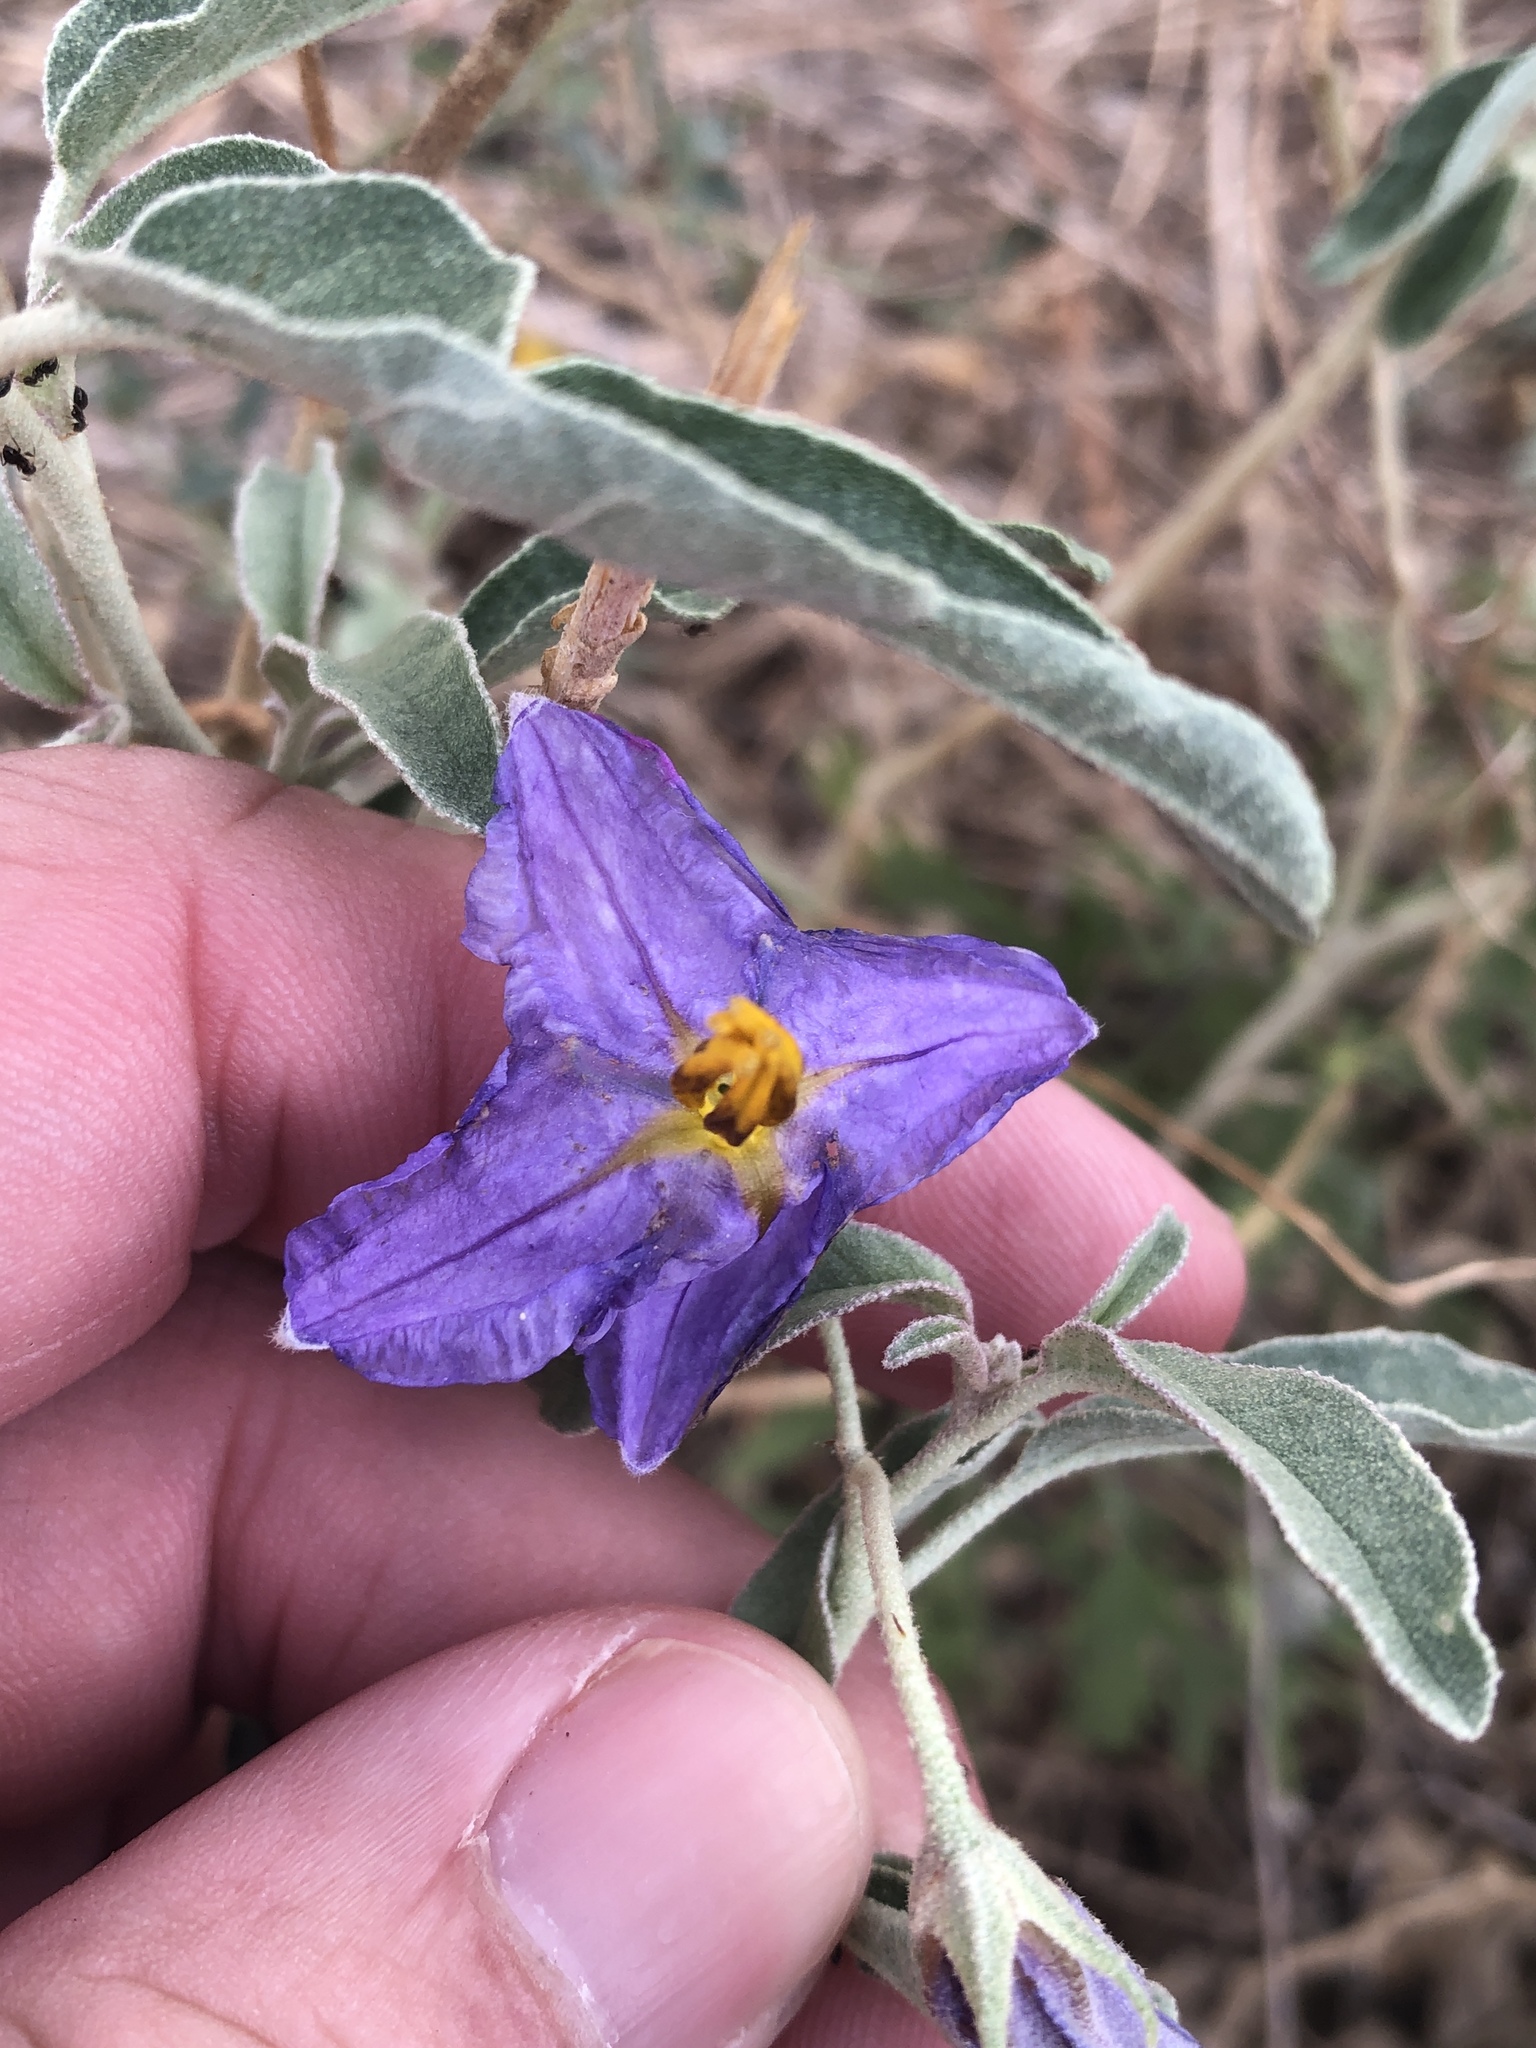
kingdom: Plantae
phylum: Tracheophyta
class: Magnoliopsida
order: Solanales
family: Solanaceae
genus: Solanum
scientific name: Solanum elaeagnifolium
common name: Silverleaf nightshade
